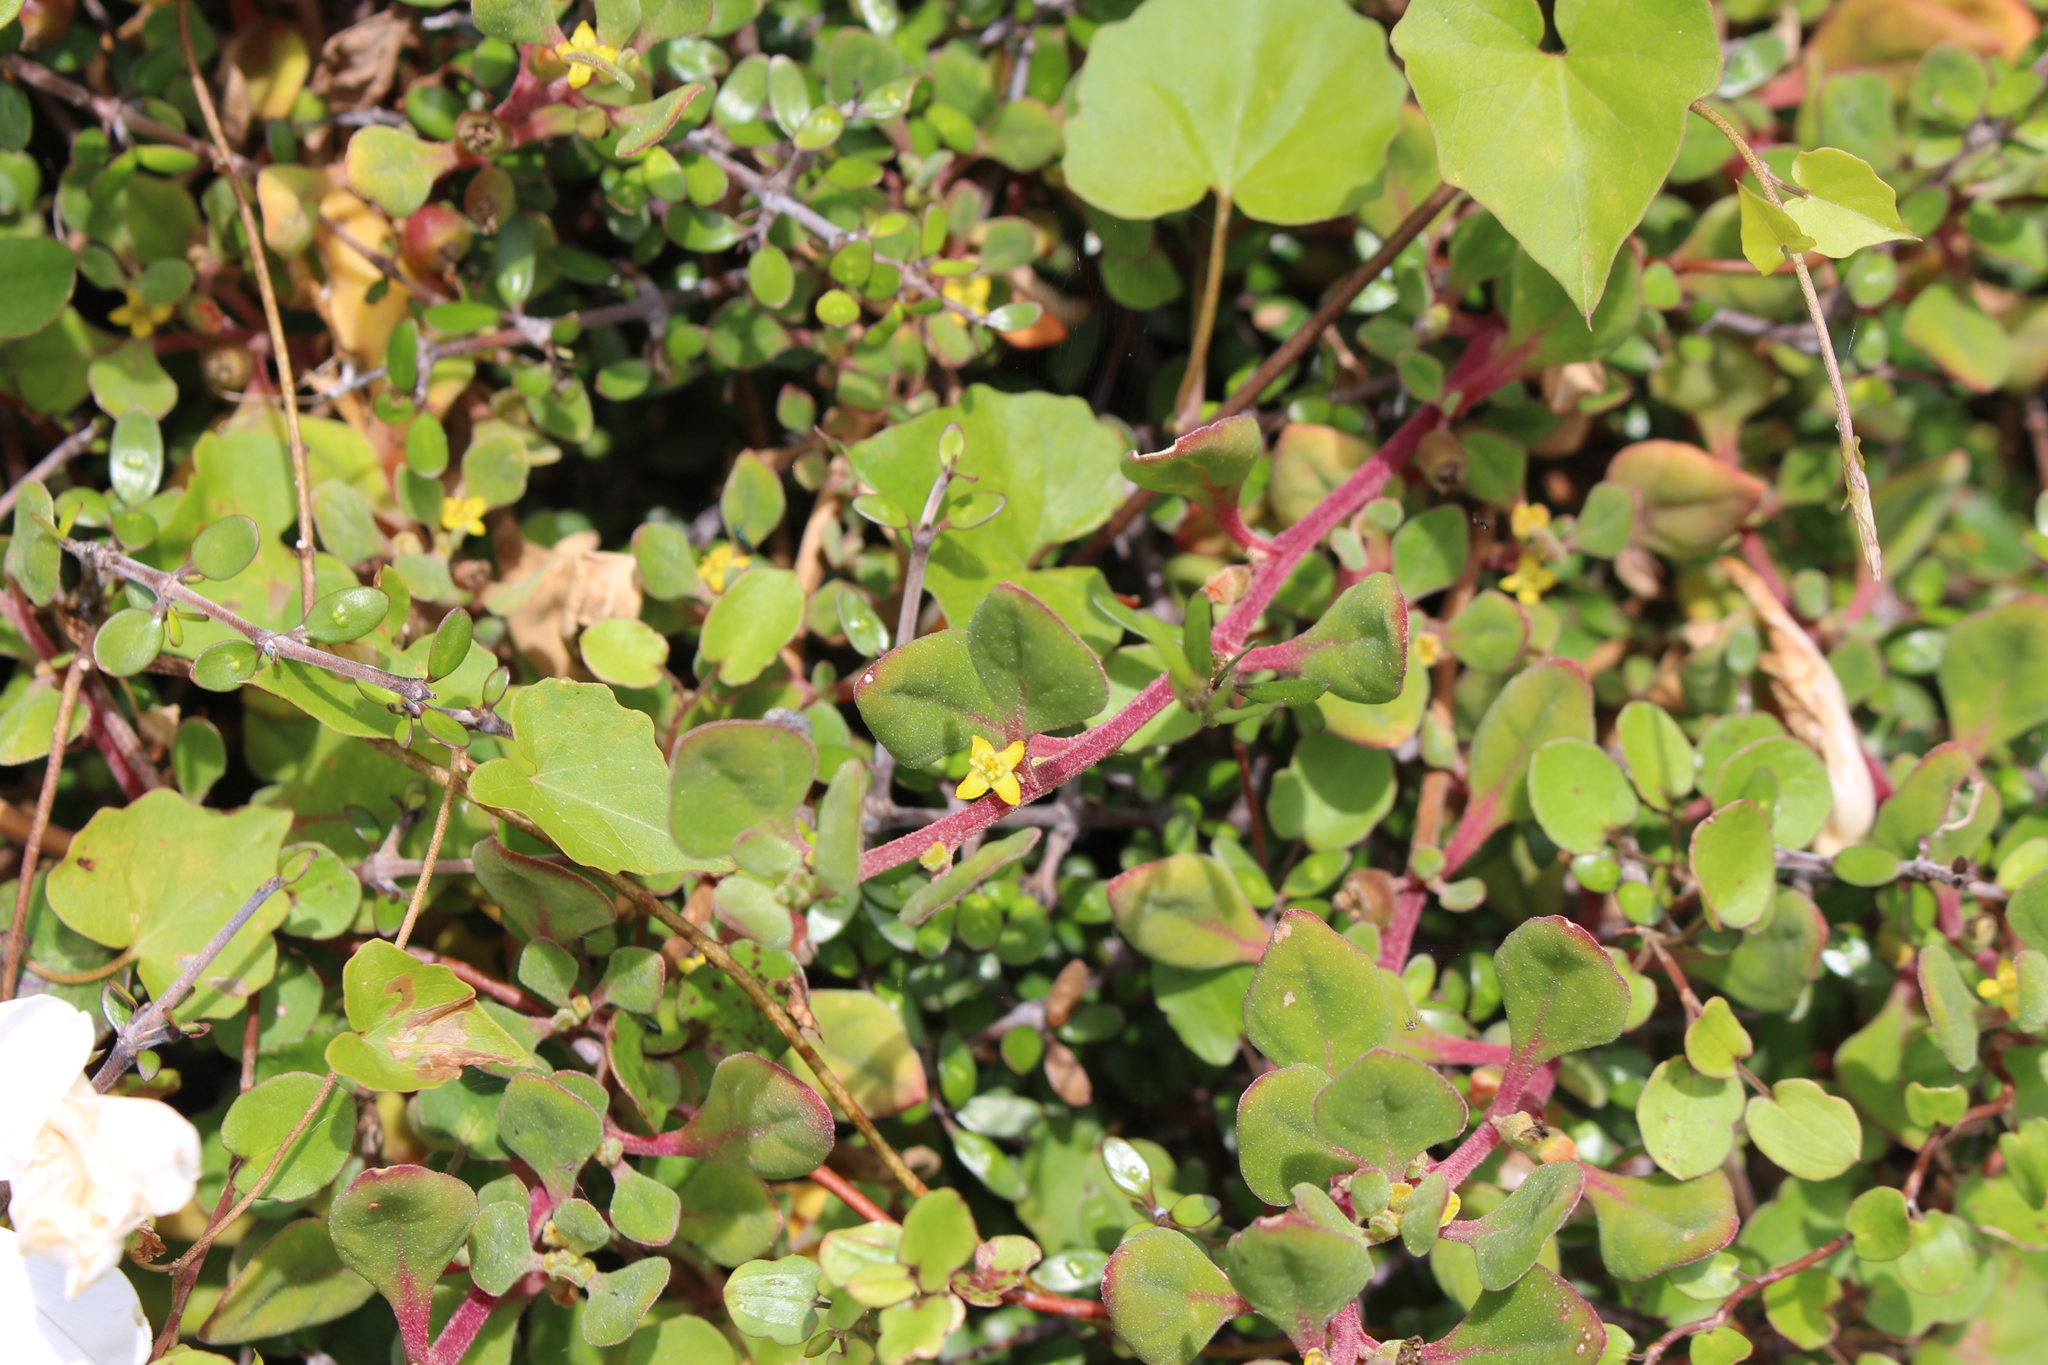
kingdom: Plantae
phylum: Tracheophyta
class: Magnoliopsida
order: Caryophyllales
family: Aizoaceae
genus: Tetragonia
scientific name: Tetragonia implexicoma
